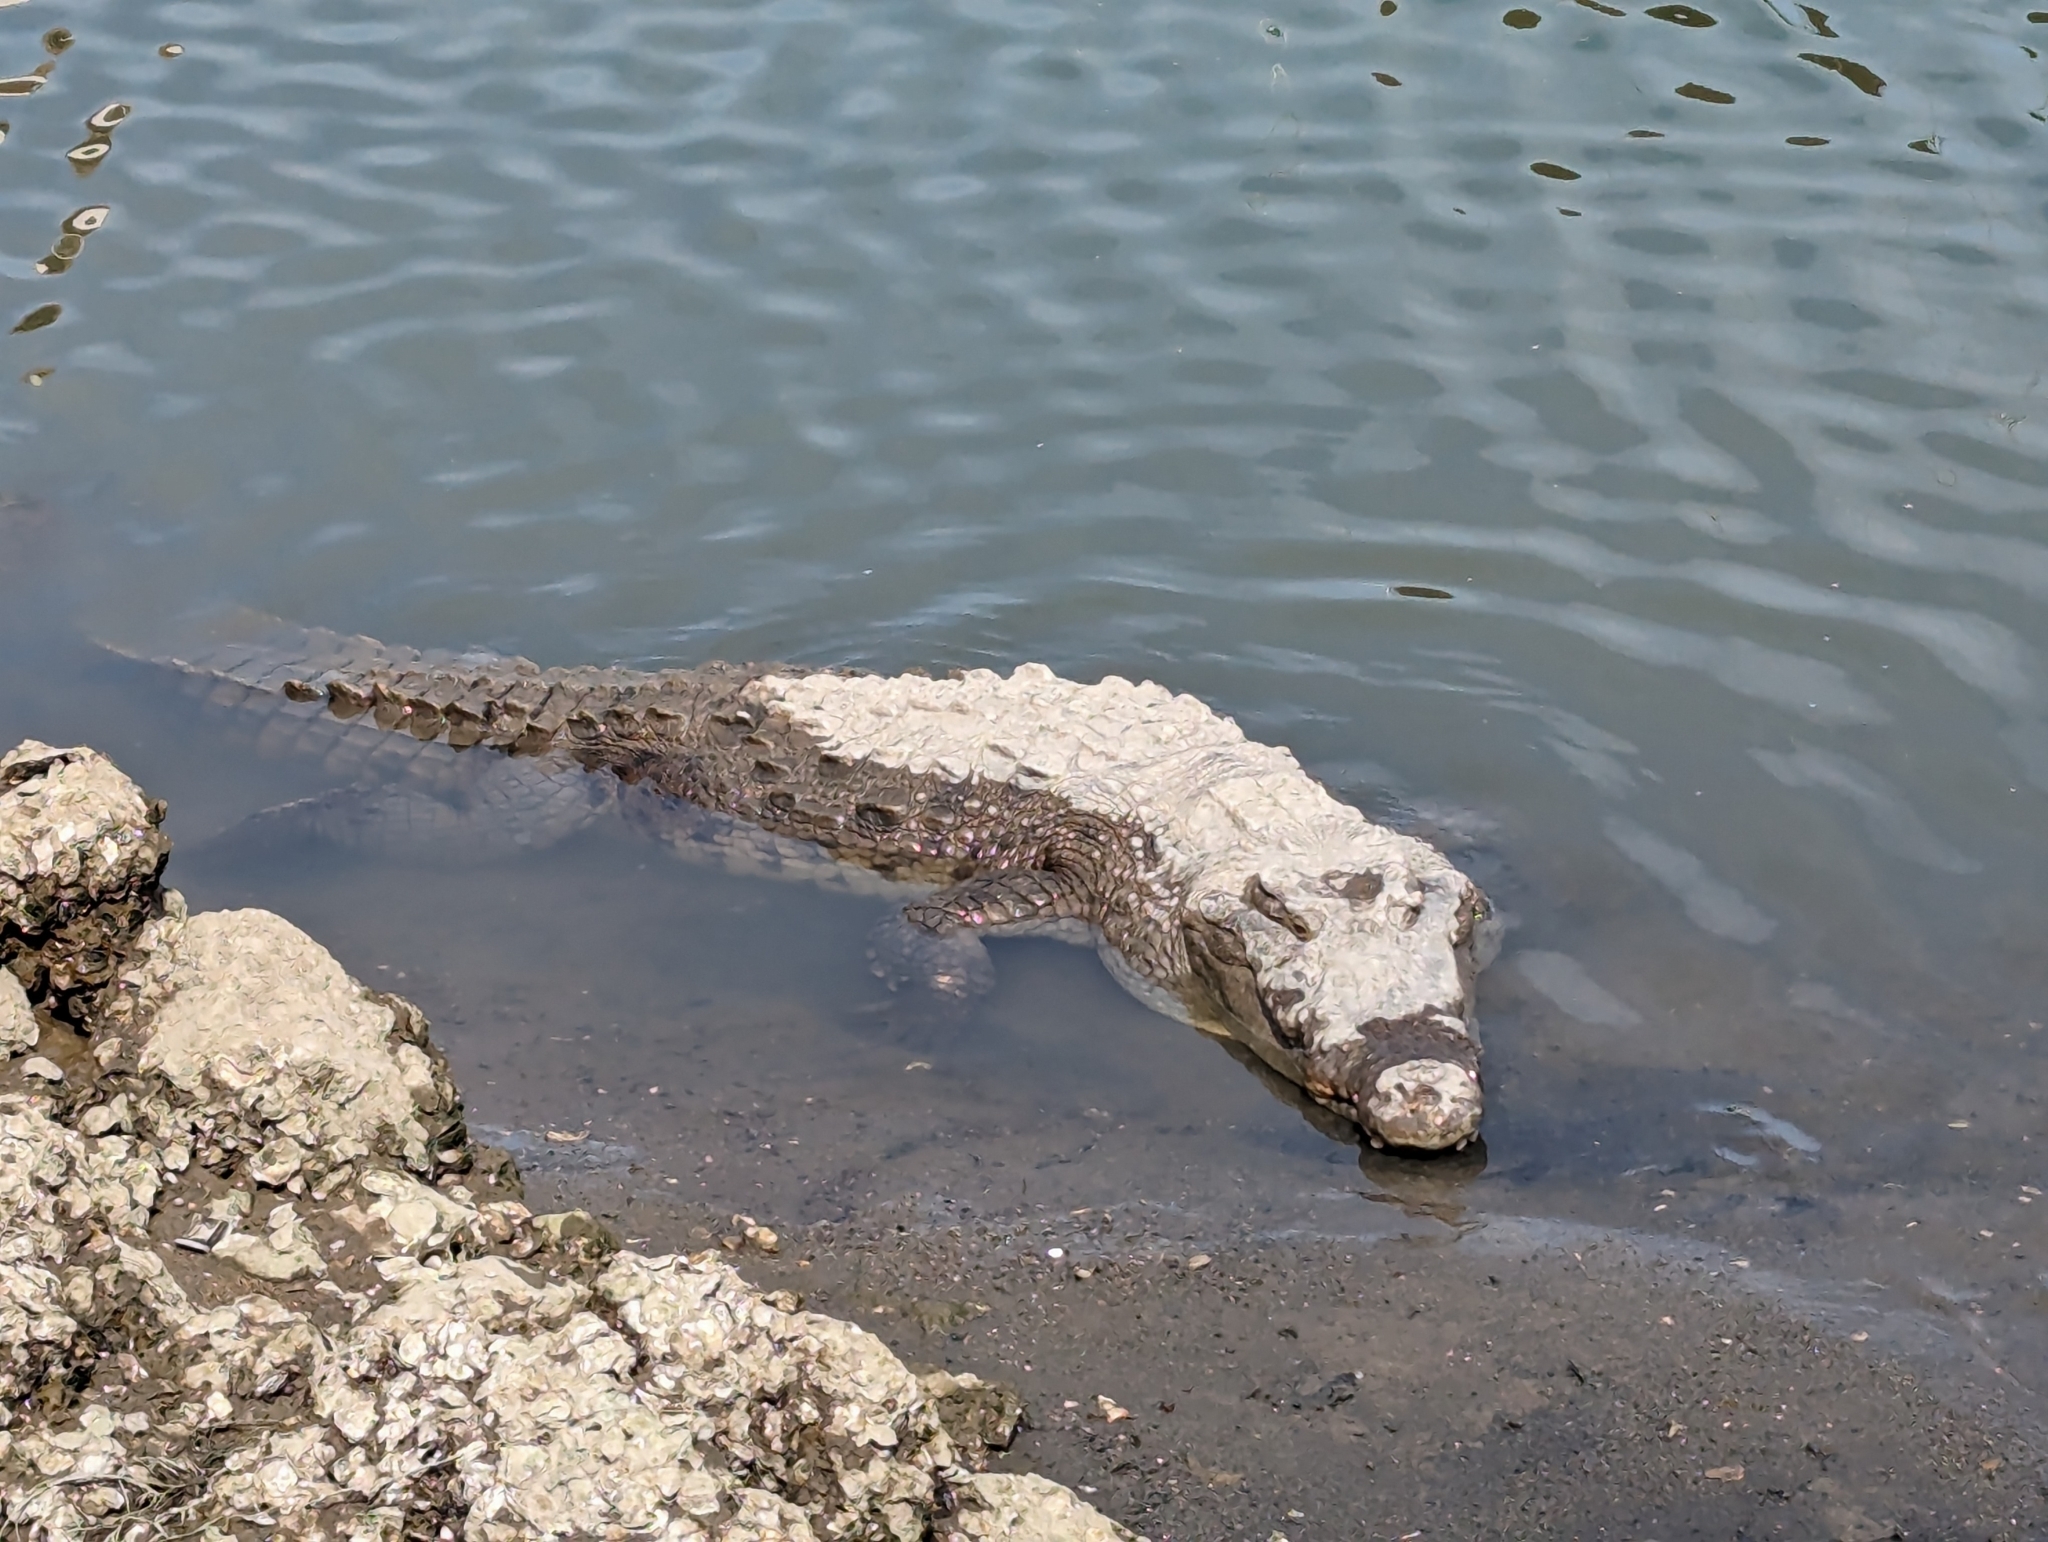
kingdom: Animalia
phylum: Chordata
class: Crocodylia
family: Crocodylidae
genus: Crocodylus
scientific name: Crocodylus acutus
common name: American crocodile
